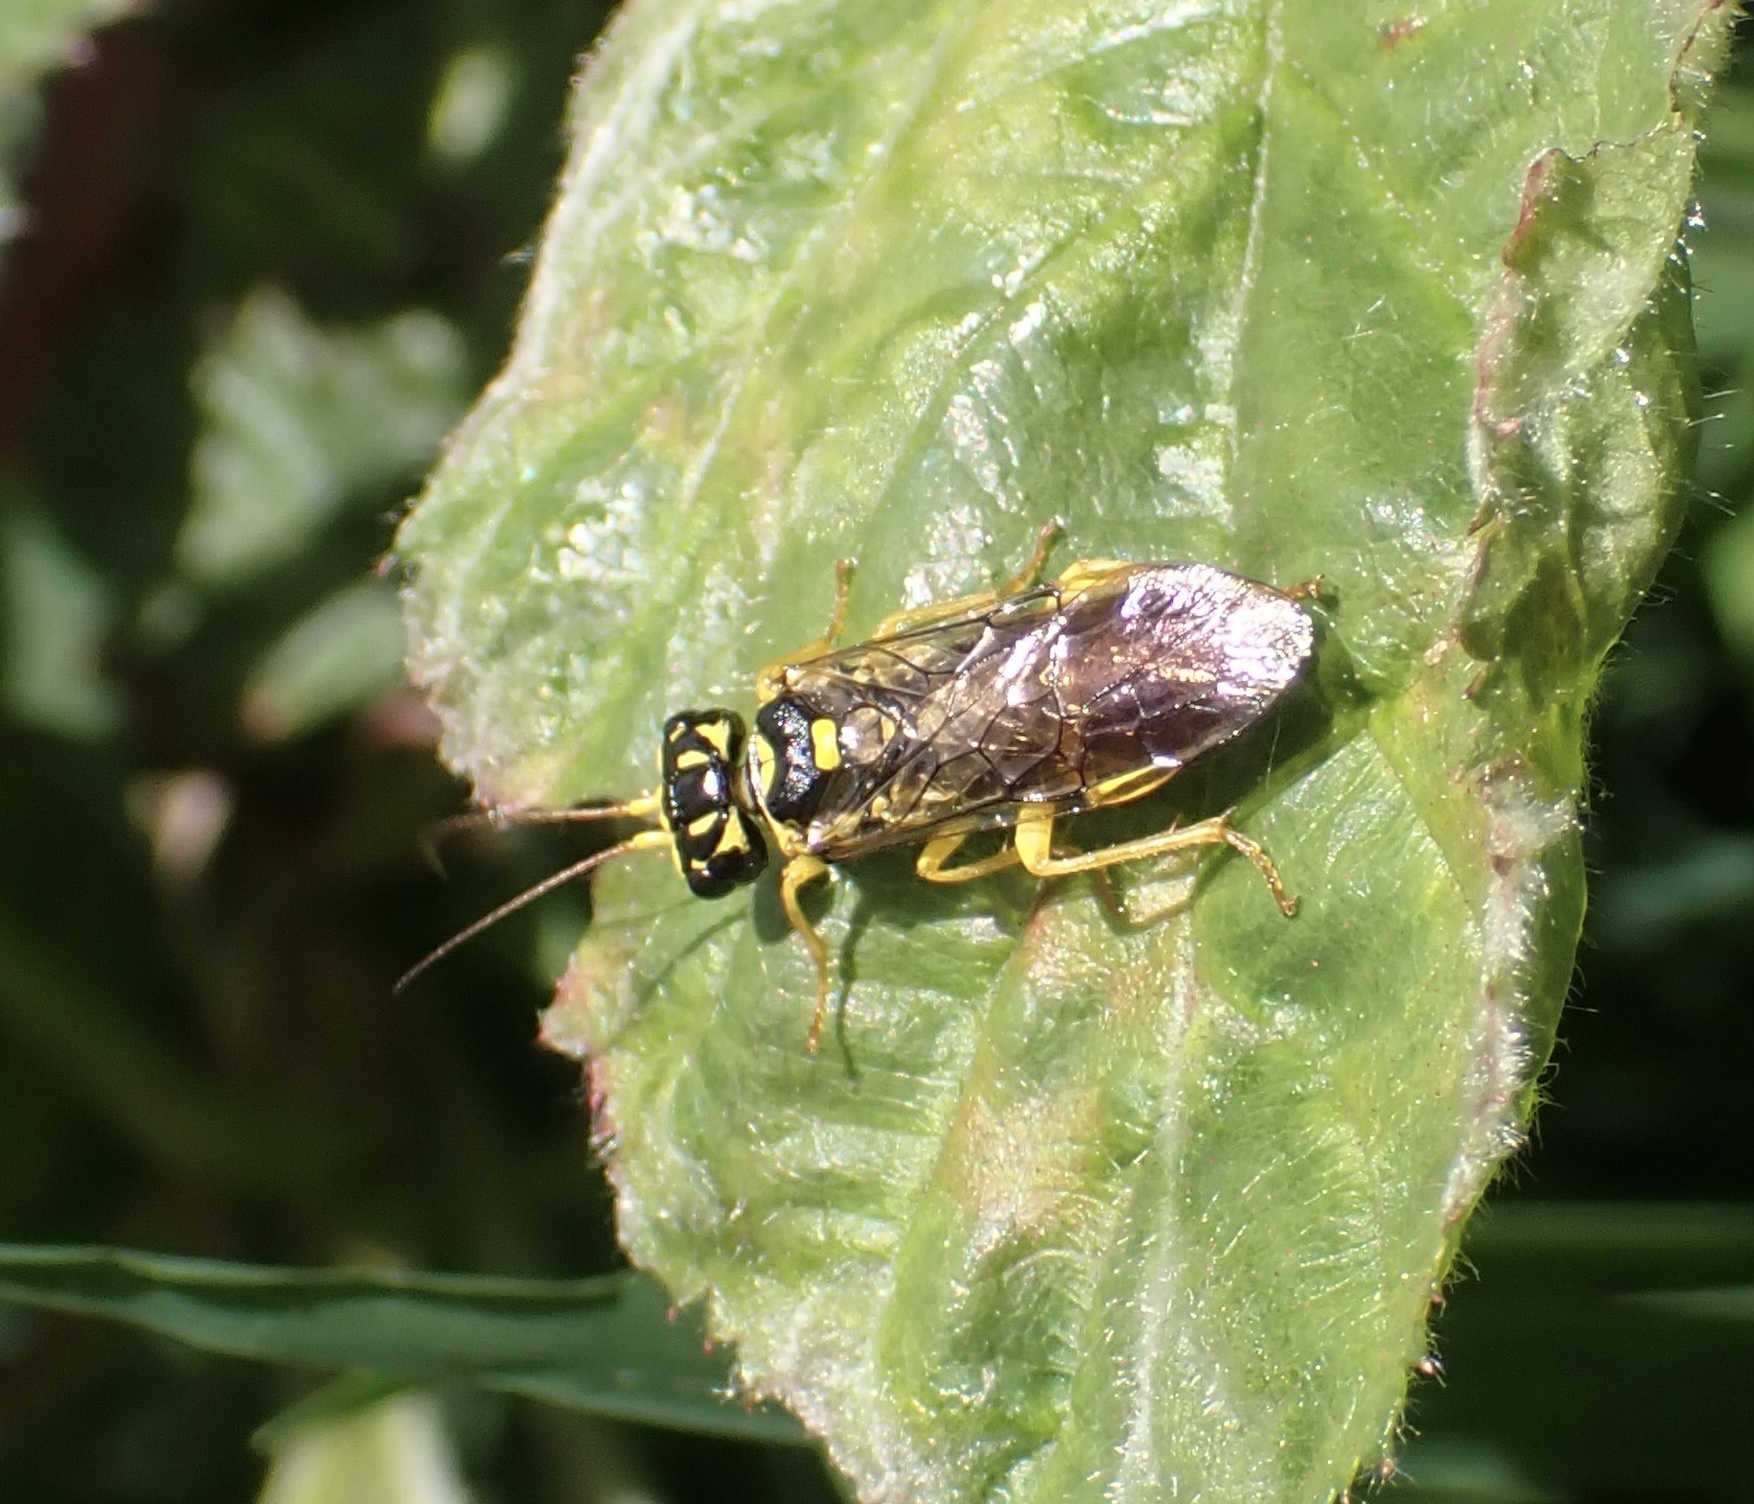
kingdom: Animalia
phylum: Arthropoda
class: Insecta
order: Hymenoptera
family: Pamphiliidae
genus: Pamphilius
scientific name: Pamphilius gyllenhali
